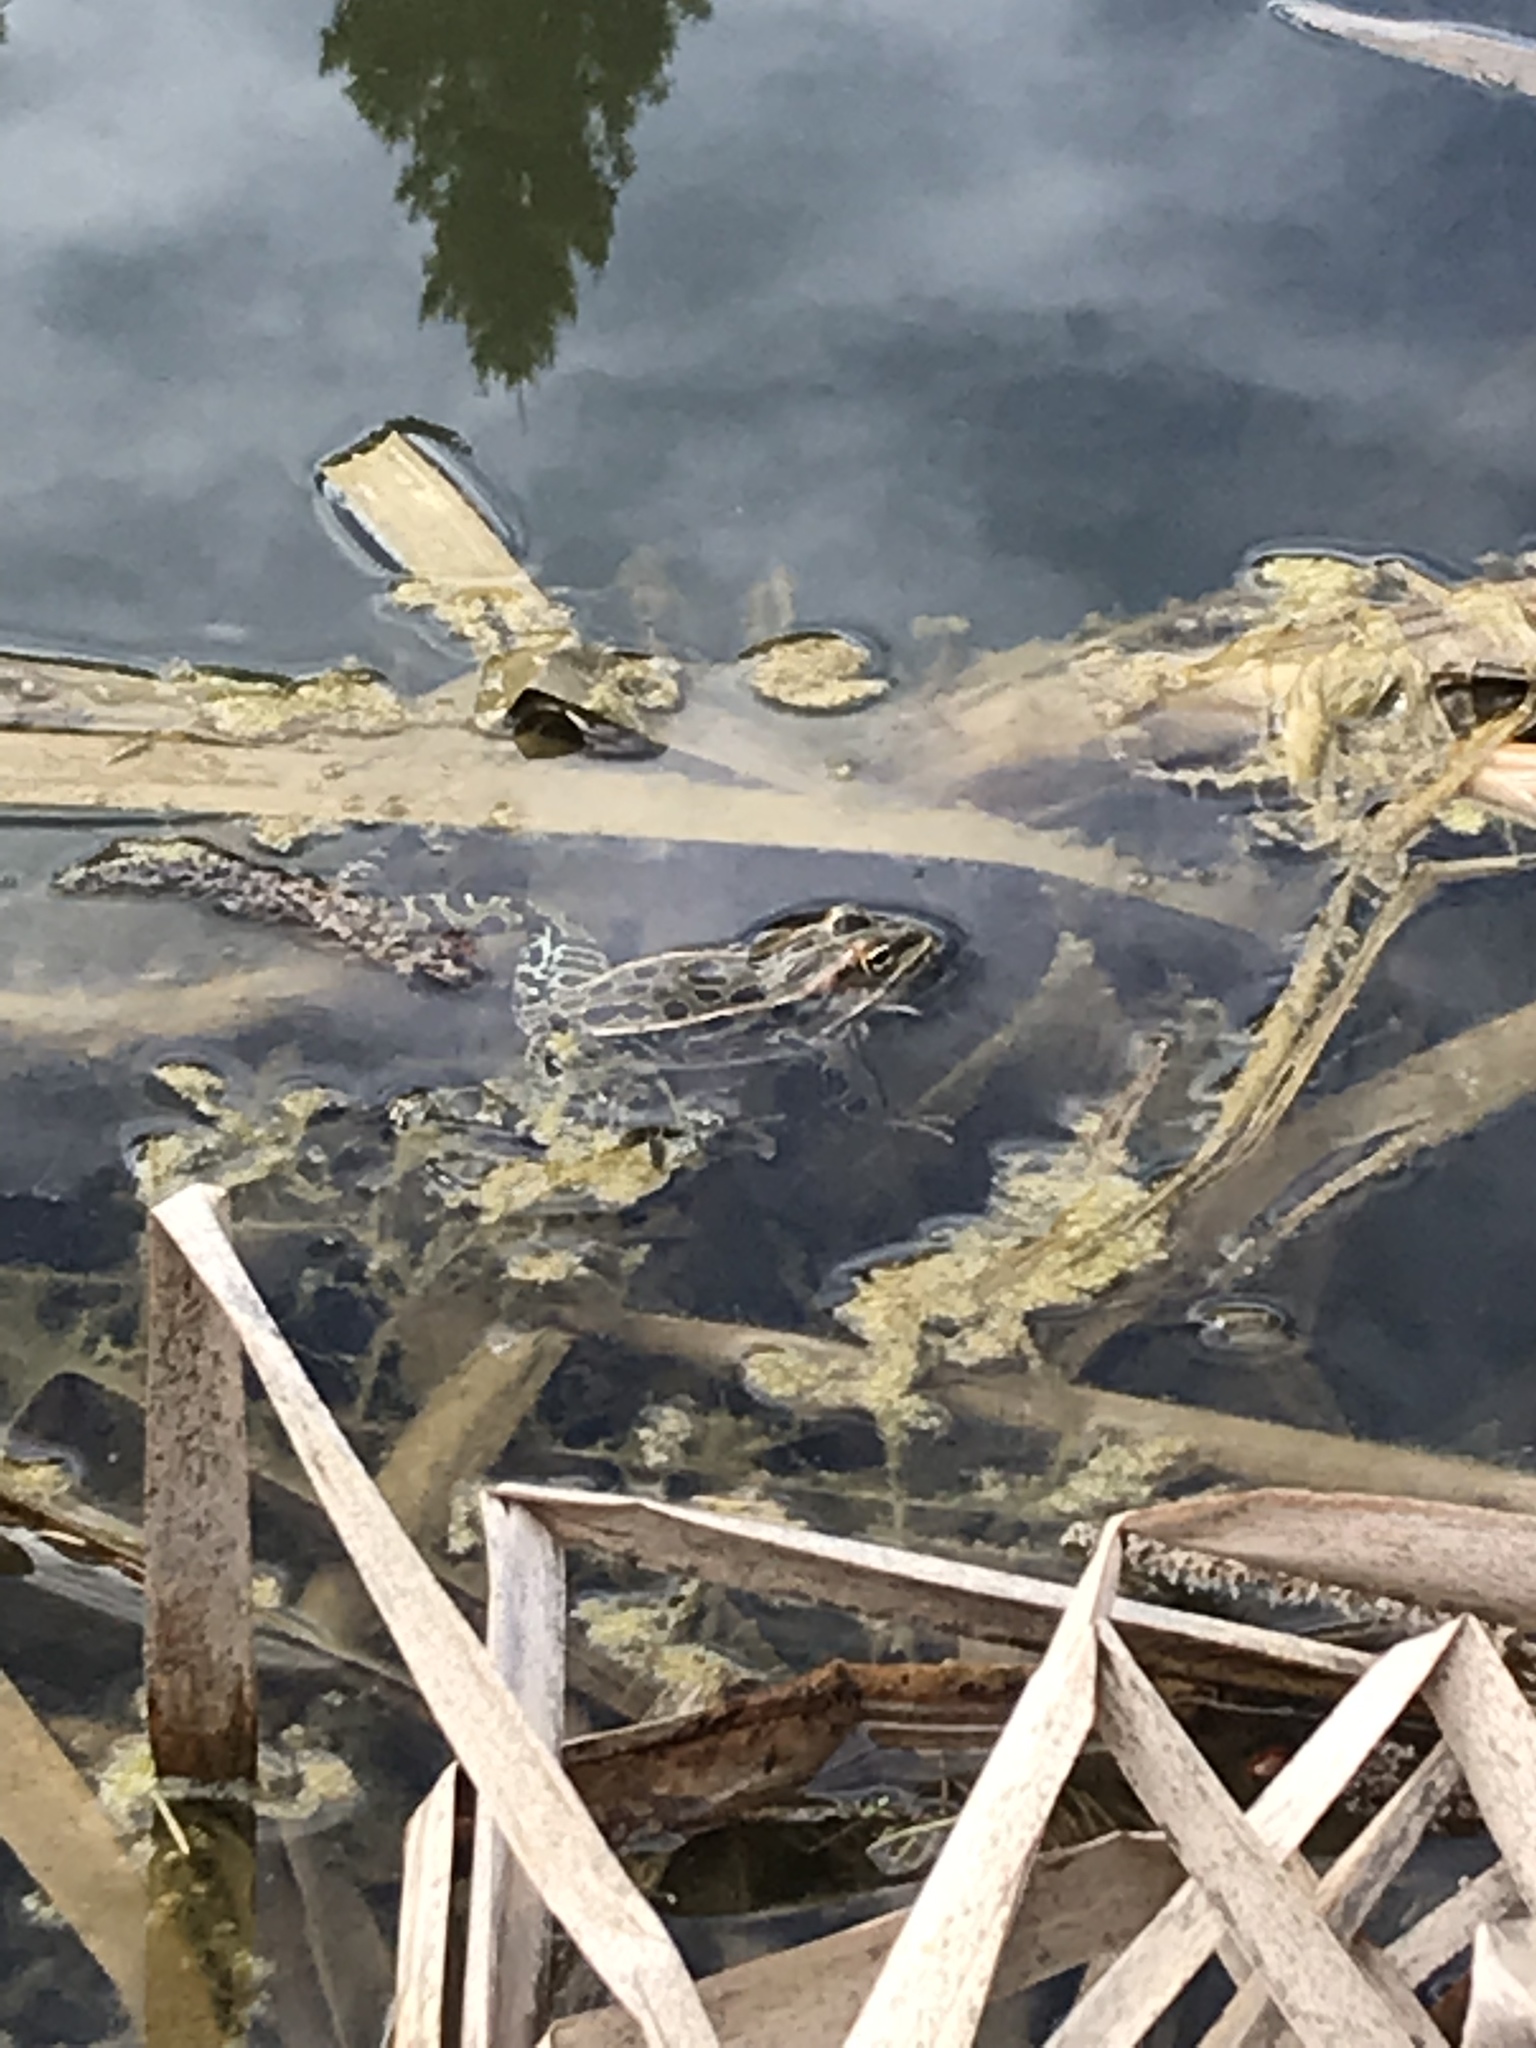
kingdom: Animalia
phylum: Chordata
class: Amphibia
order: Anura
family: Ranidae
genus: Lithobates
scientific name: Lithobates pipiens
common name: Northern leopard frog
